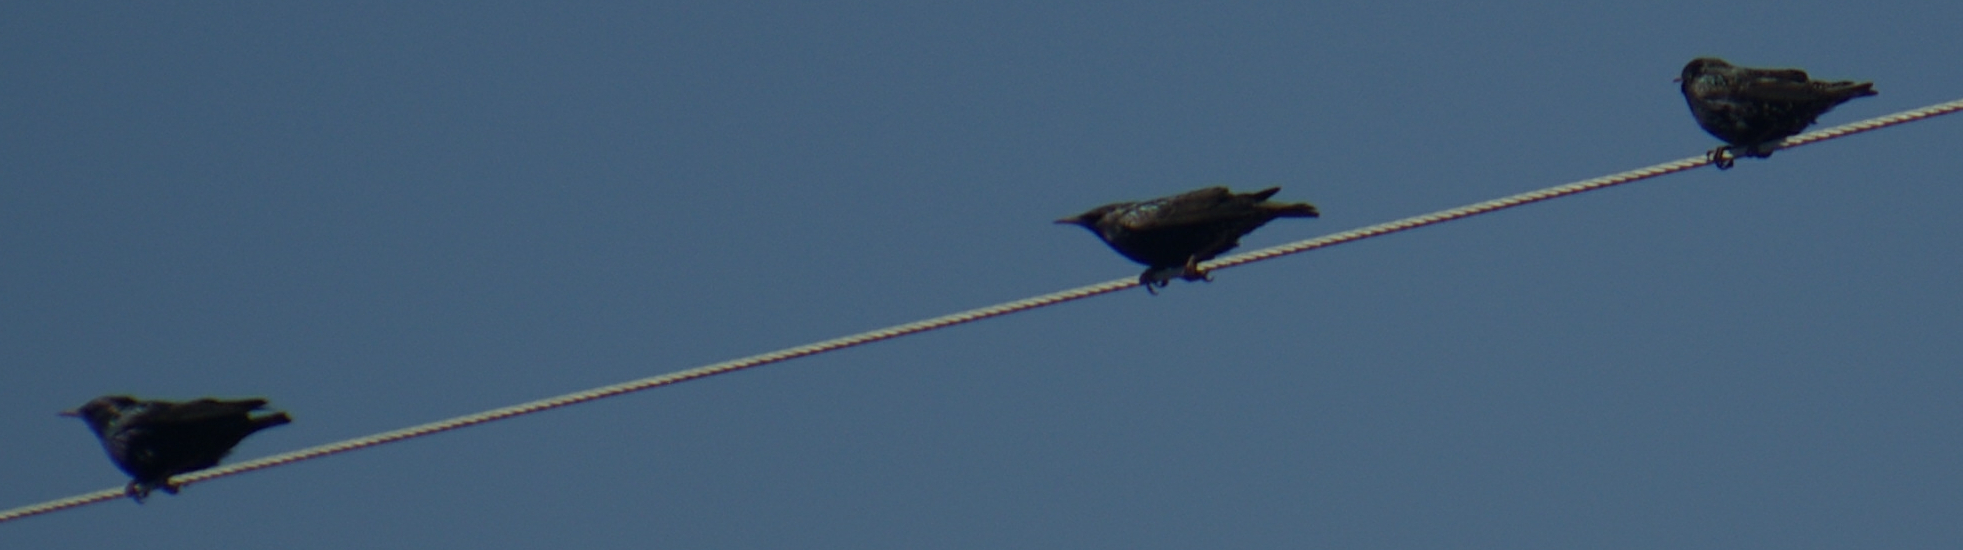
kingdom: Animalia
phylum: Chordata
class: Aves
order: Passeriformes
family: Sturnidae
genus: Sturnus
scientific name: Sturnus vulgaris
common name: Common starling
